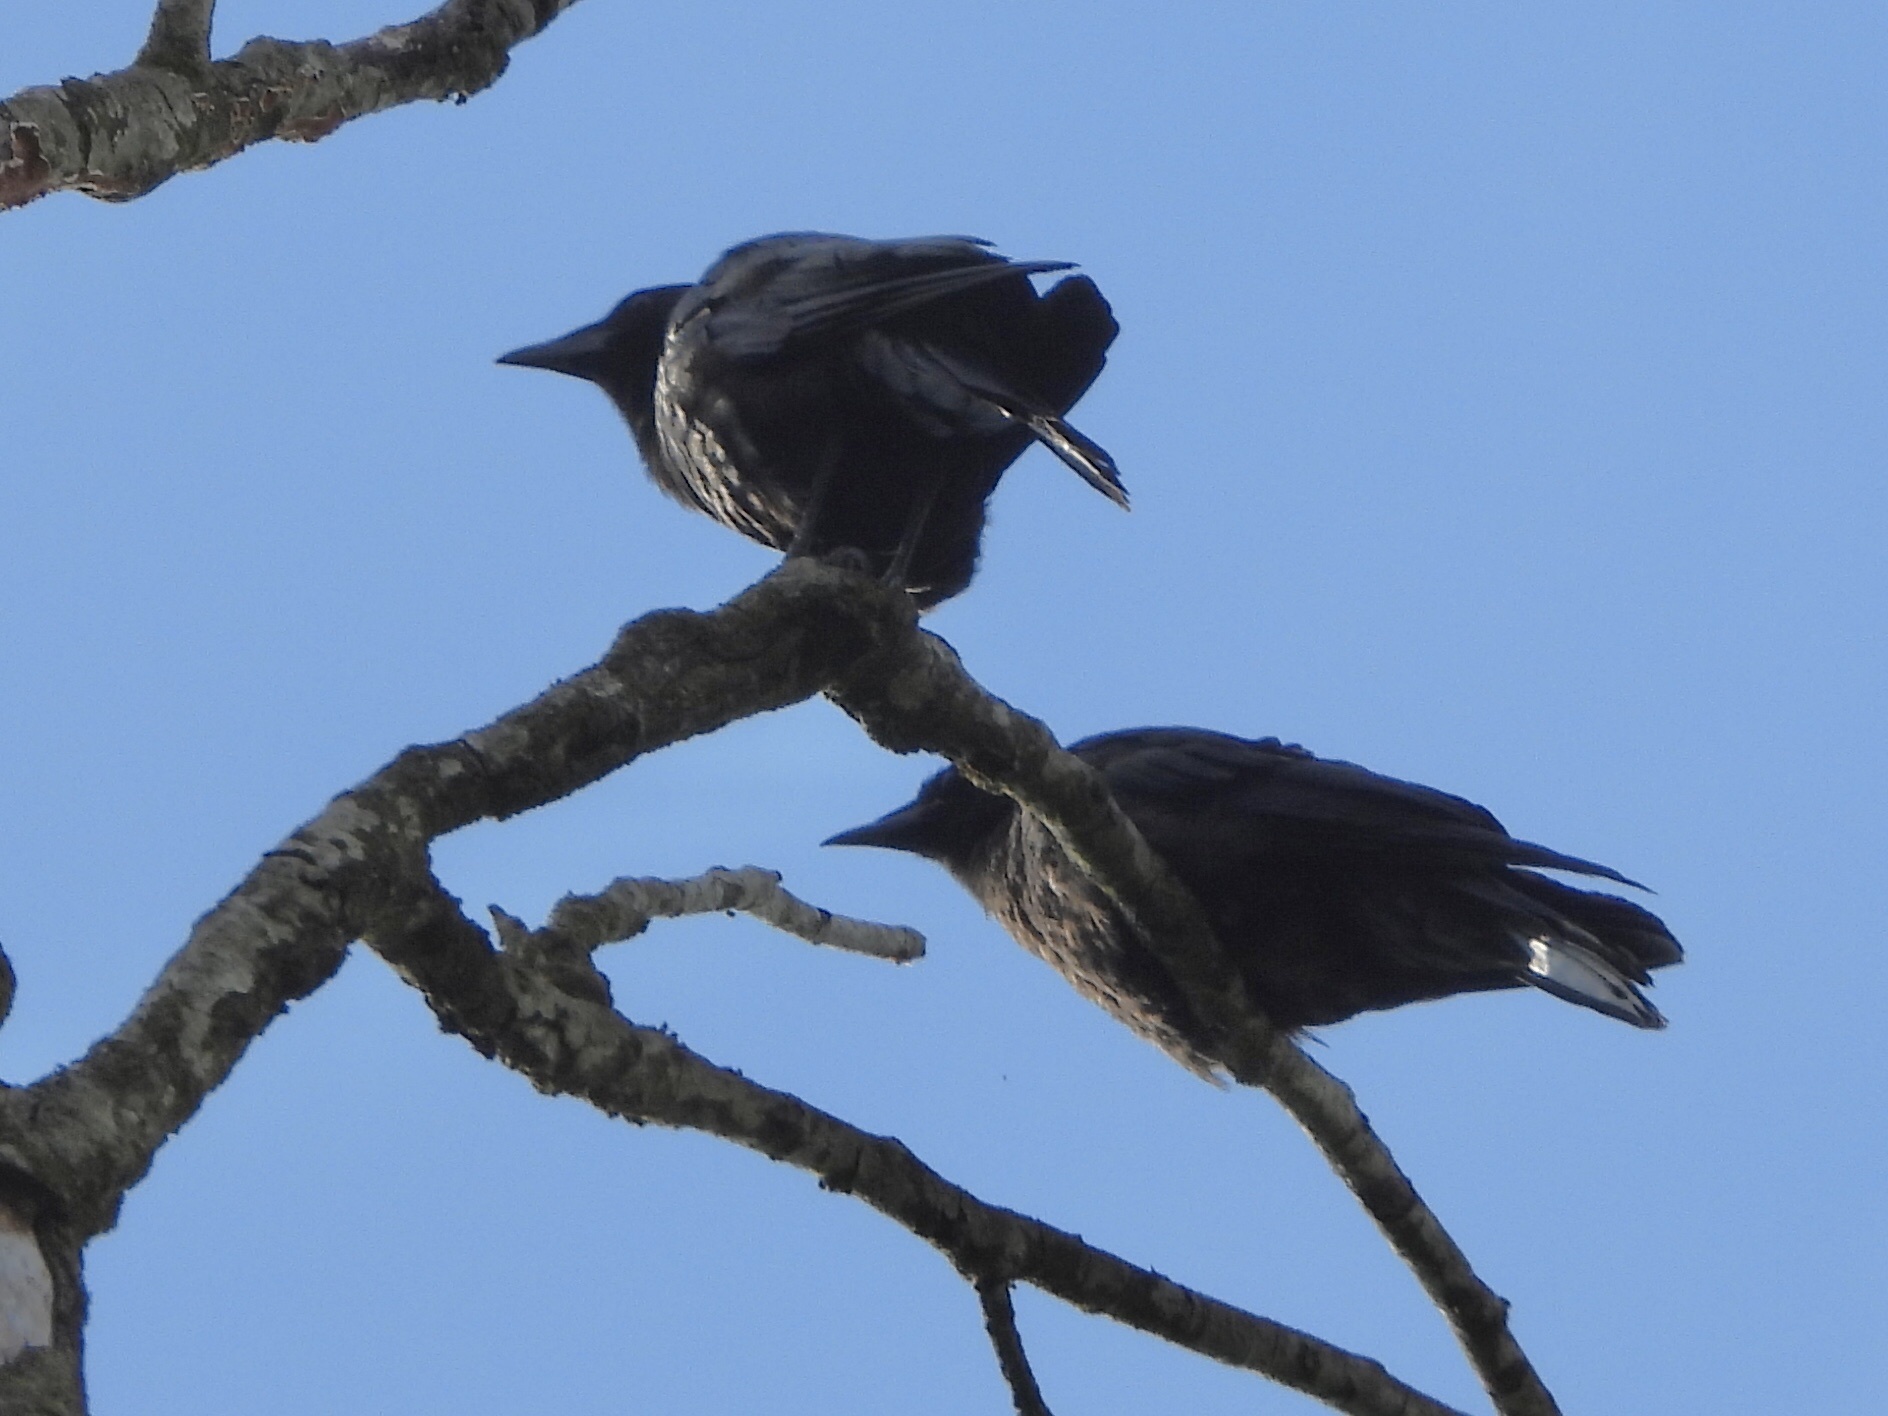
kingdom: Animalia
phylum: Chordata
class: Aves
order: Passeriformes
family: Corvidae
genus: Corvus
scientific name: Corvus brachyrhynchos
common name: American crow
